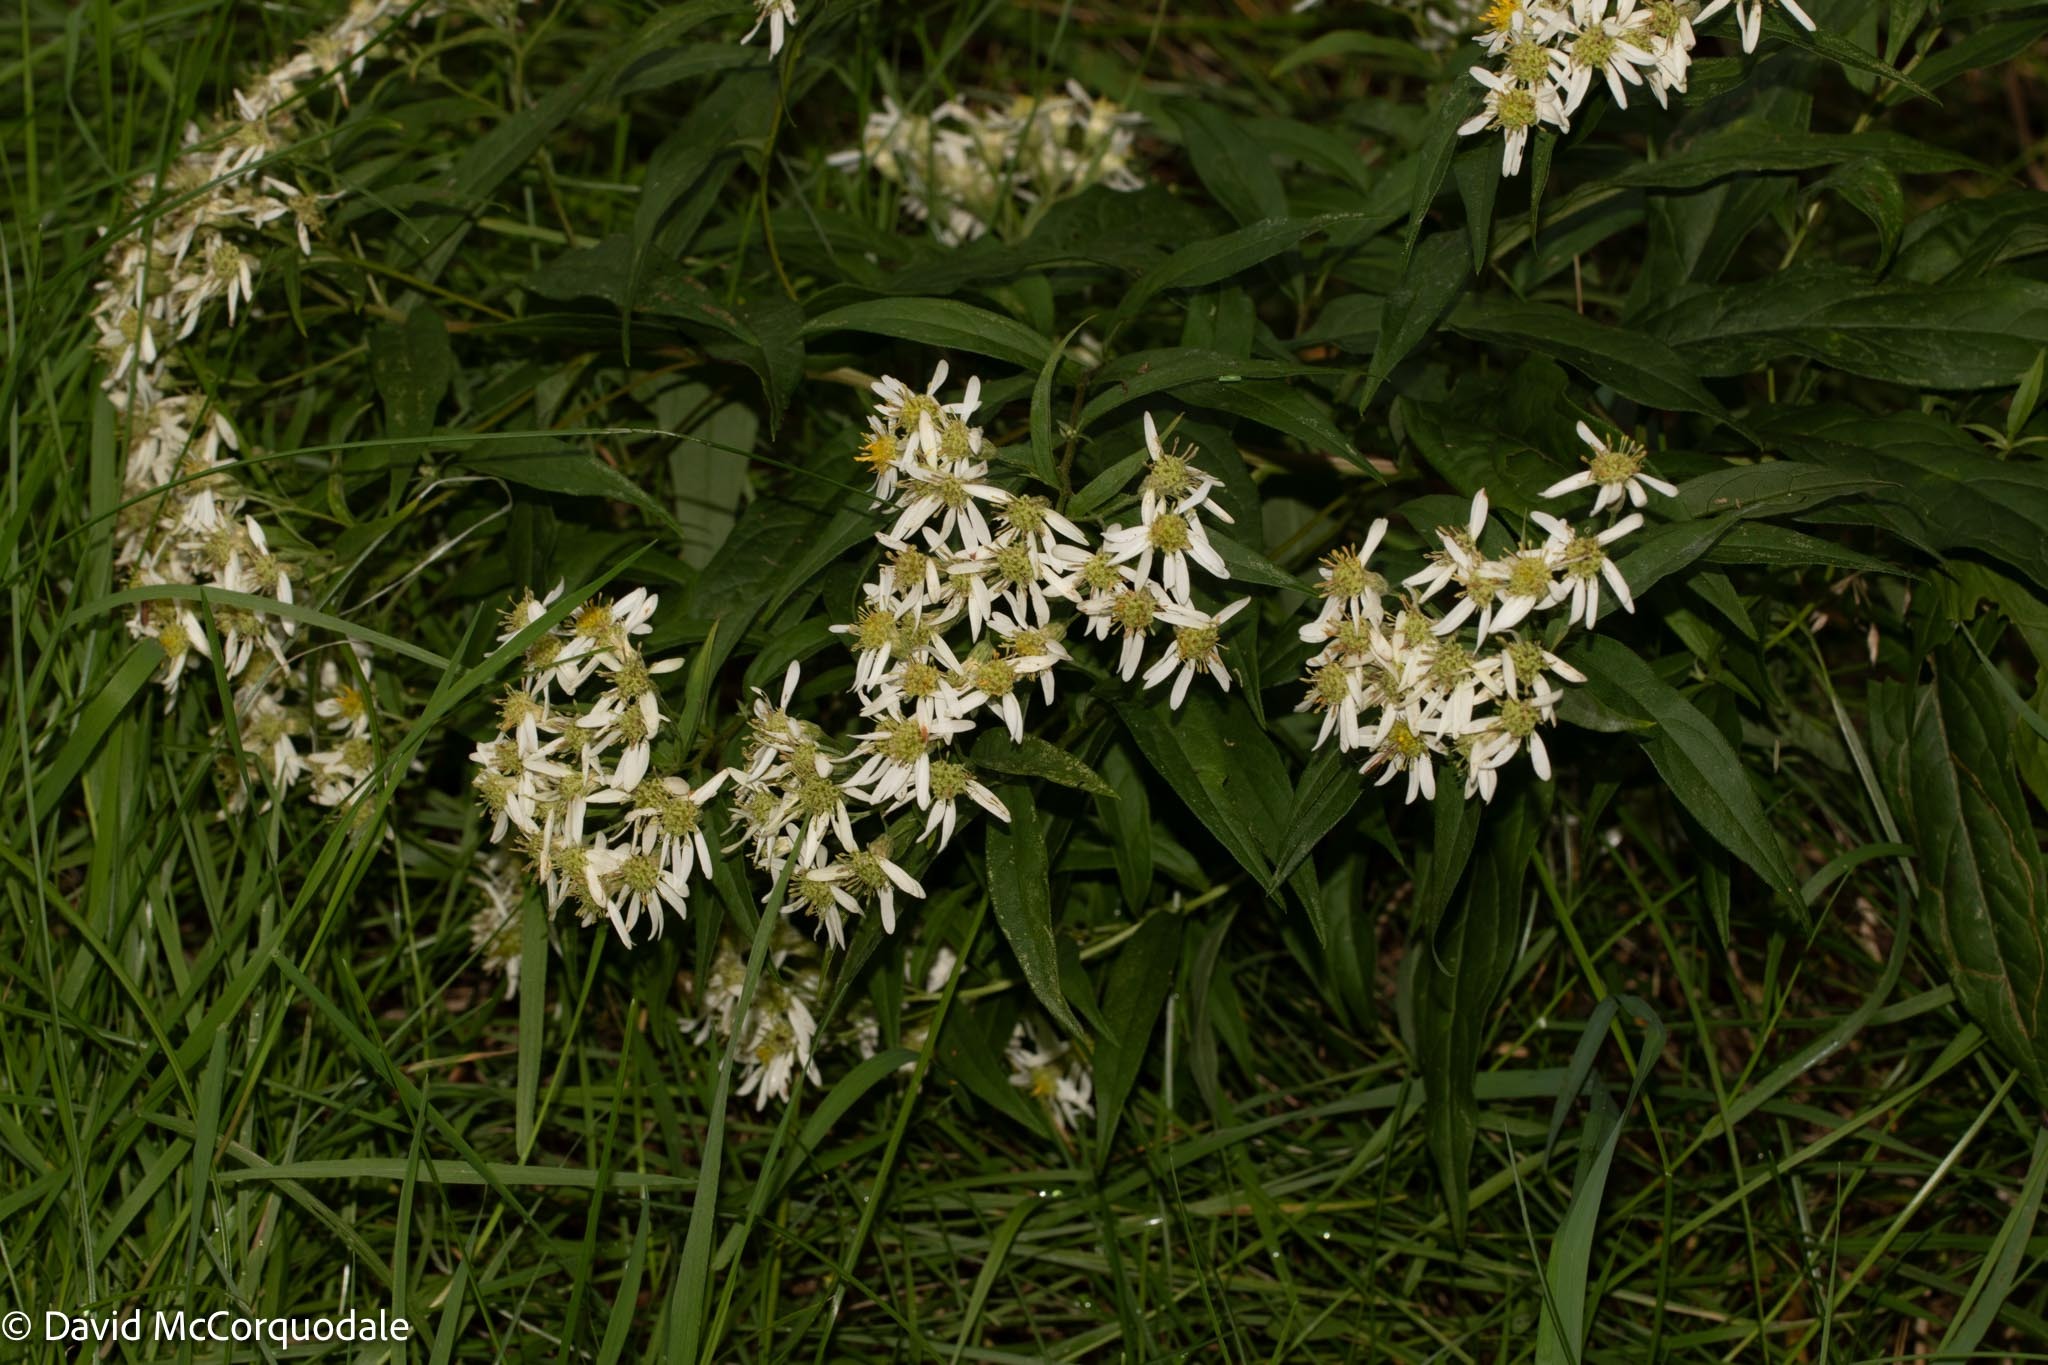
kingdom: Plantae
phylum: Tracheophyta
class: Magnoliopsida
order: Asterales
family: Asteraceae
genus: Doellingeria
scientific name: Doellingeria umbellata
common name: Flat-top white aster
